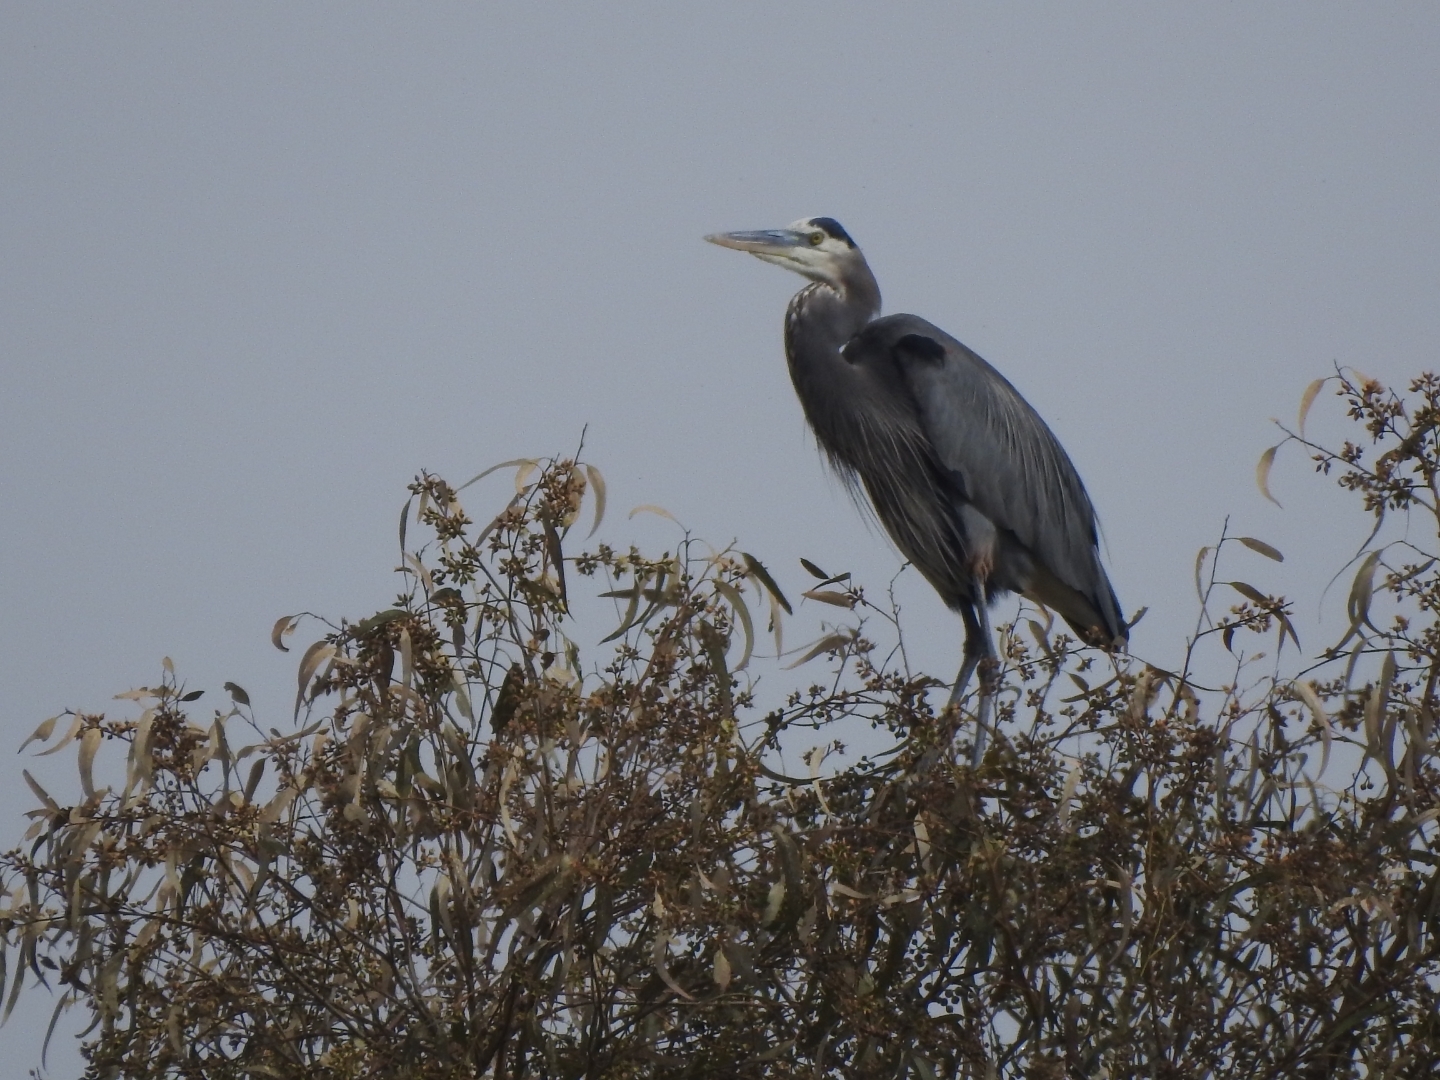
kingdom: Animalia
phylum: Chordata
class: Aves
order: Pelecaniformes
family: Ardeidae
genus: Ardea
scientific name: Ardea herodias
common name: Great blue heron
